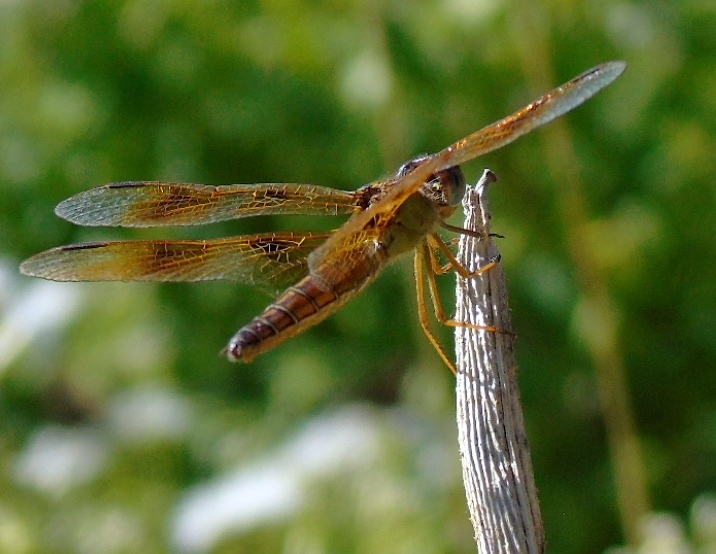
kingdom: Animalia
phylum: Arthropoda
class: Insecta
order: Odonata
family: Libellulidae
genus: Perithemis
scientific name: Perithemis
